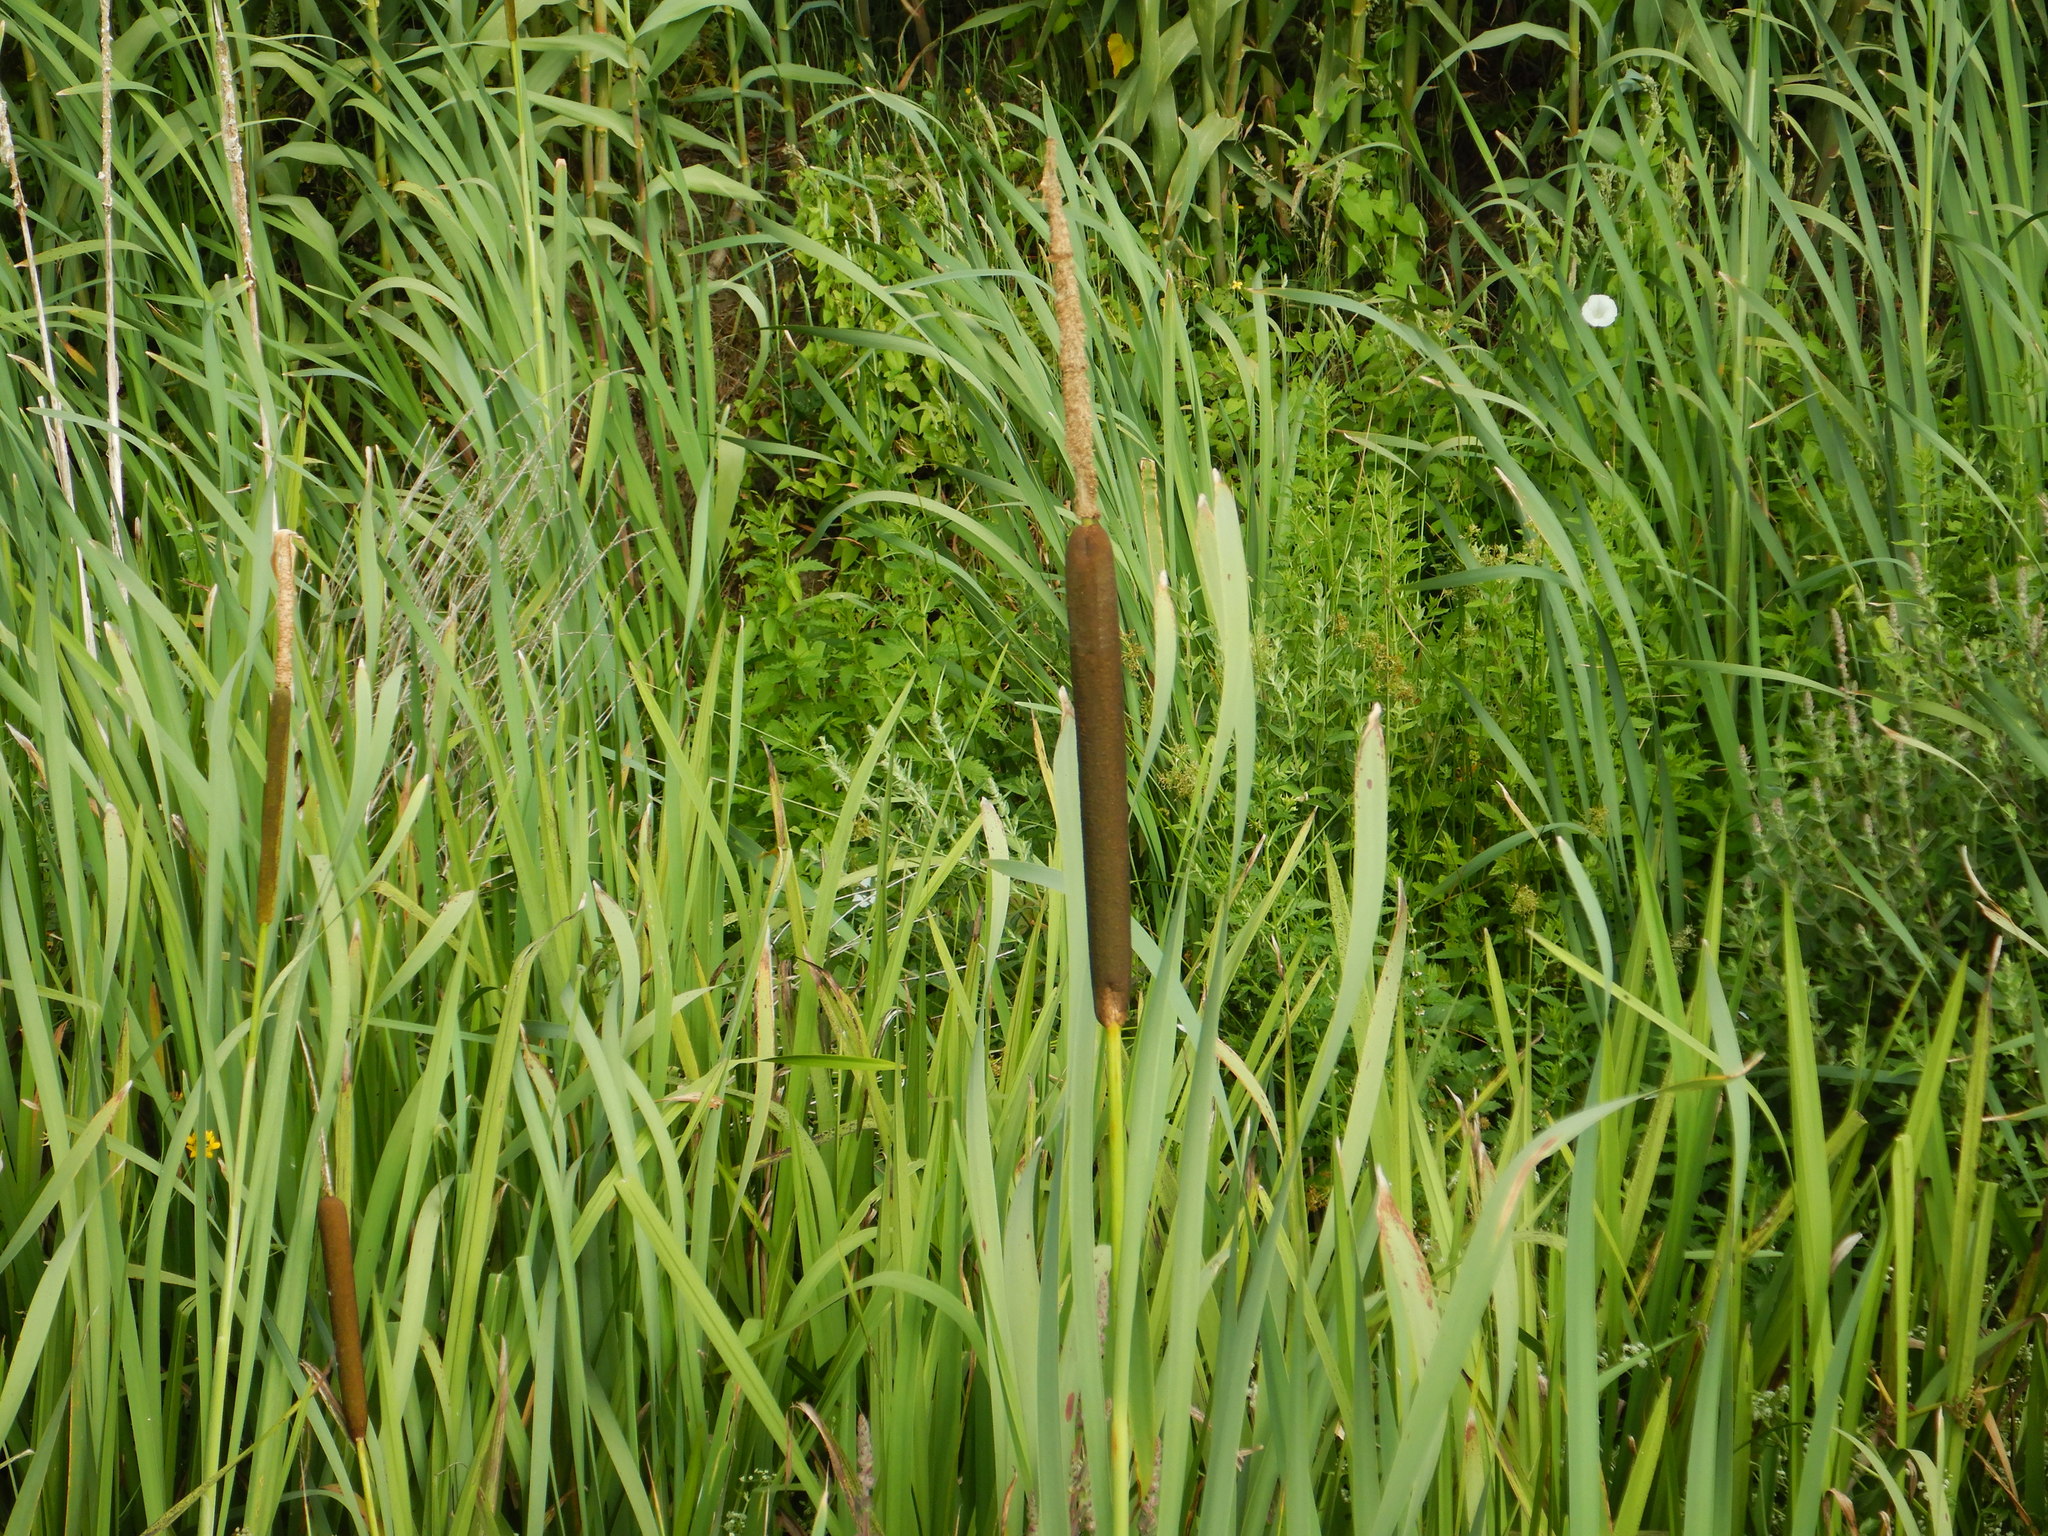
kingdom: Plantae
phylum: Tracheophyta
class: Liliopsida
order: Poales
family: Typhaceae
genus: Typha
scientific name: Typha latifolia
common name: Broadleaf cattail
